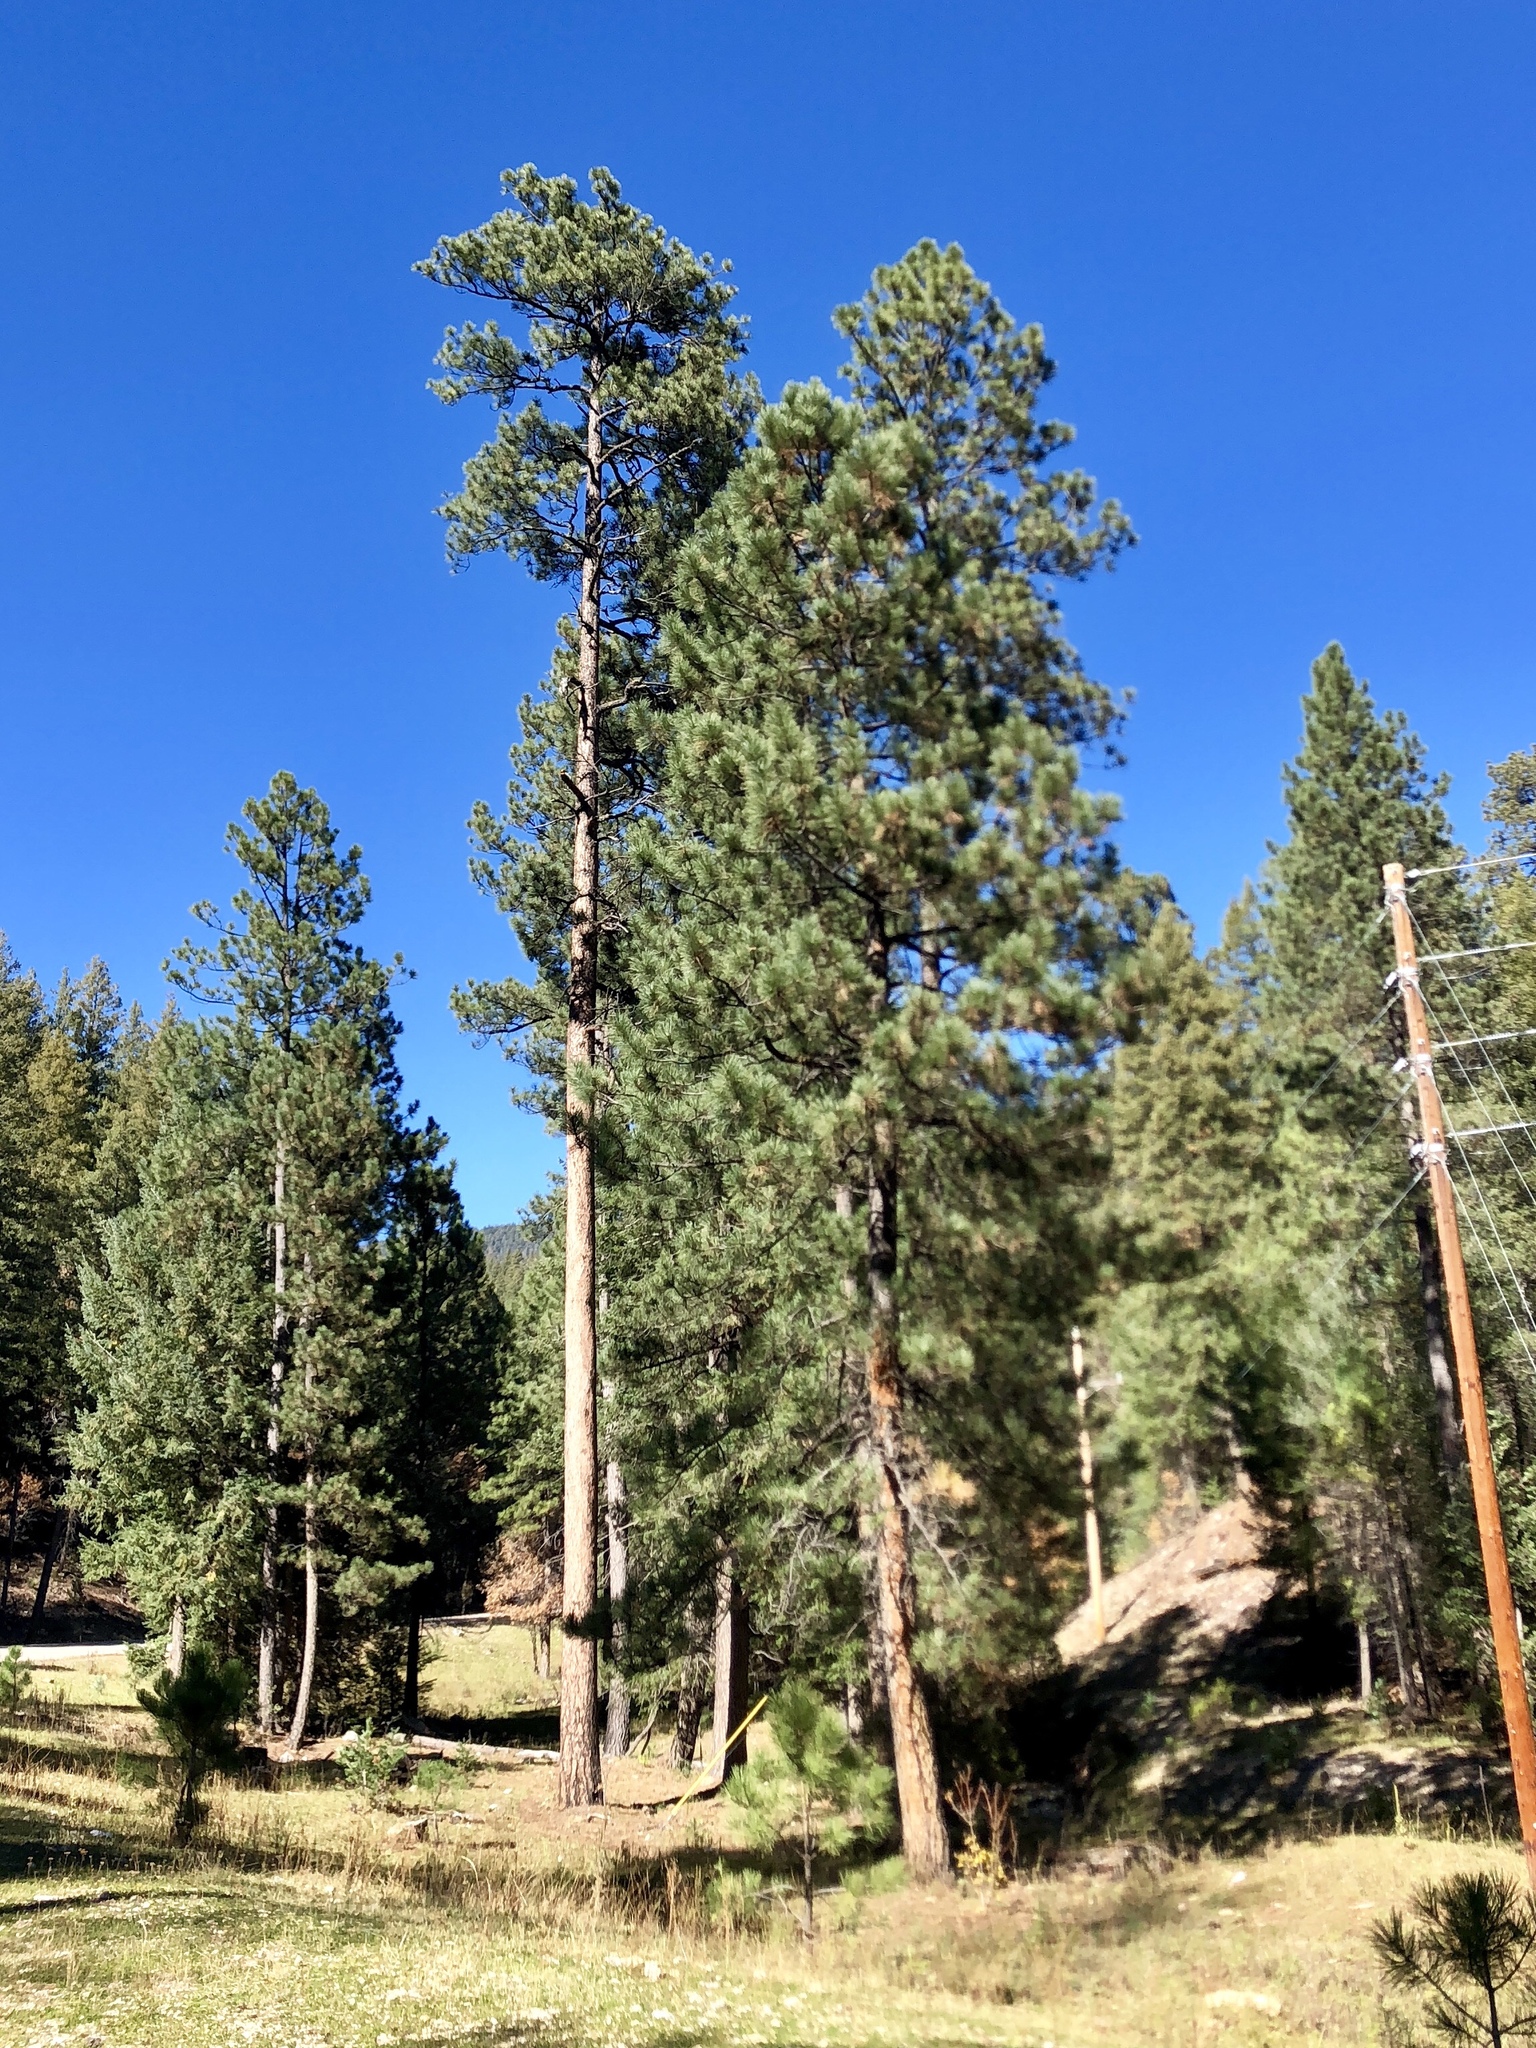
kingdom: Plantae
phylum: Tracheophyta
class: Pinopsida
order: Pinales
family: Pinaceae
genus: Pinus
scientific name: Pinus ponderosa
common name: Western yellow-pine
